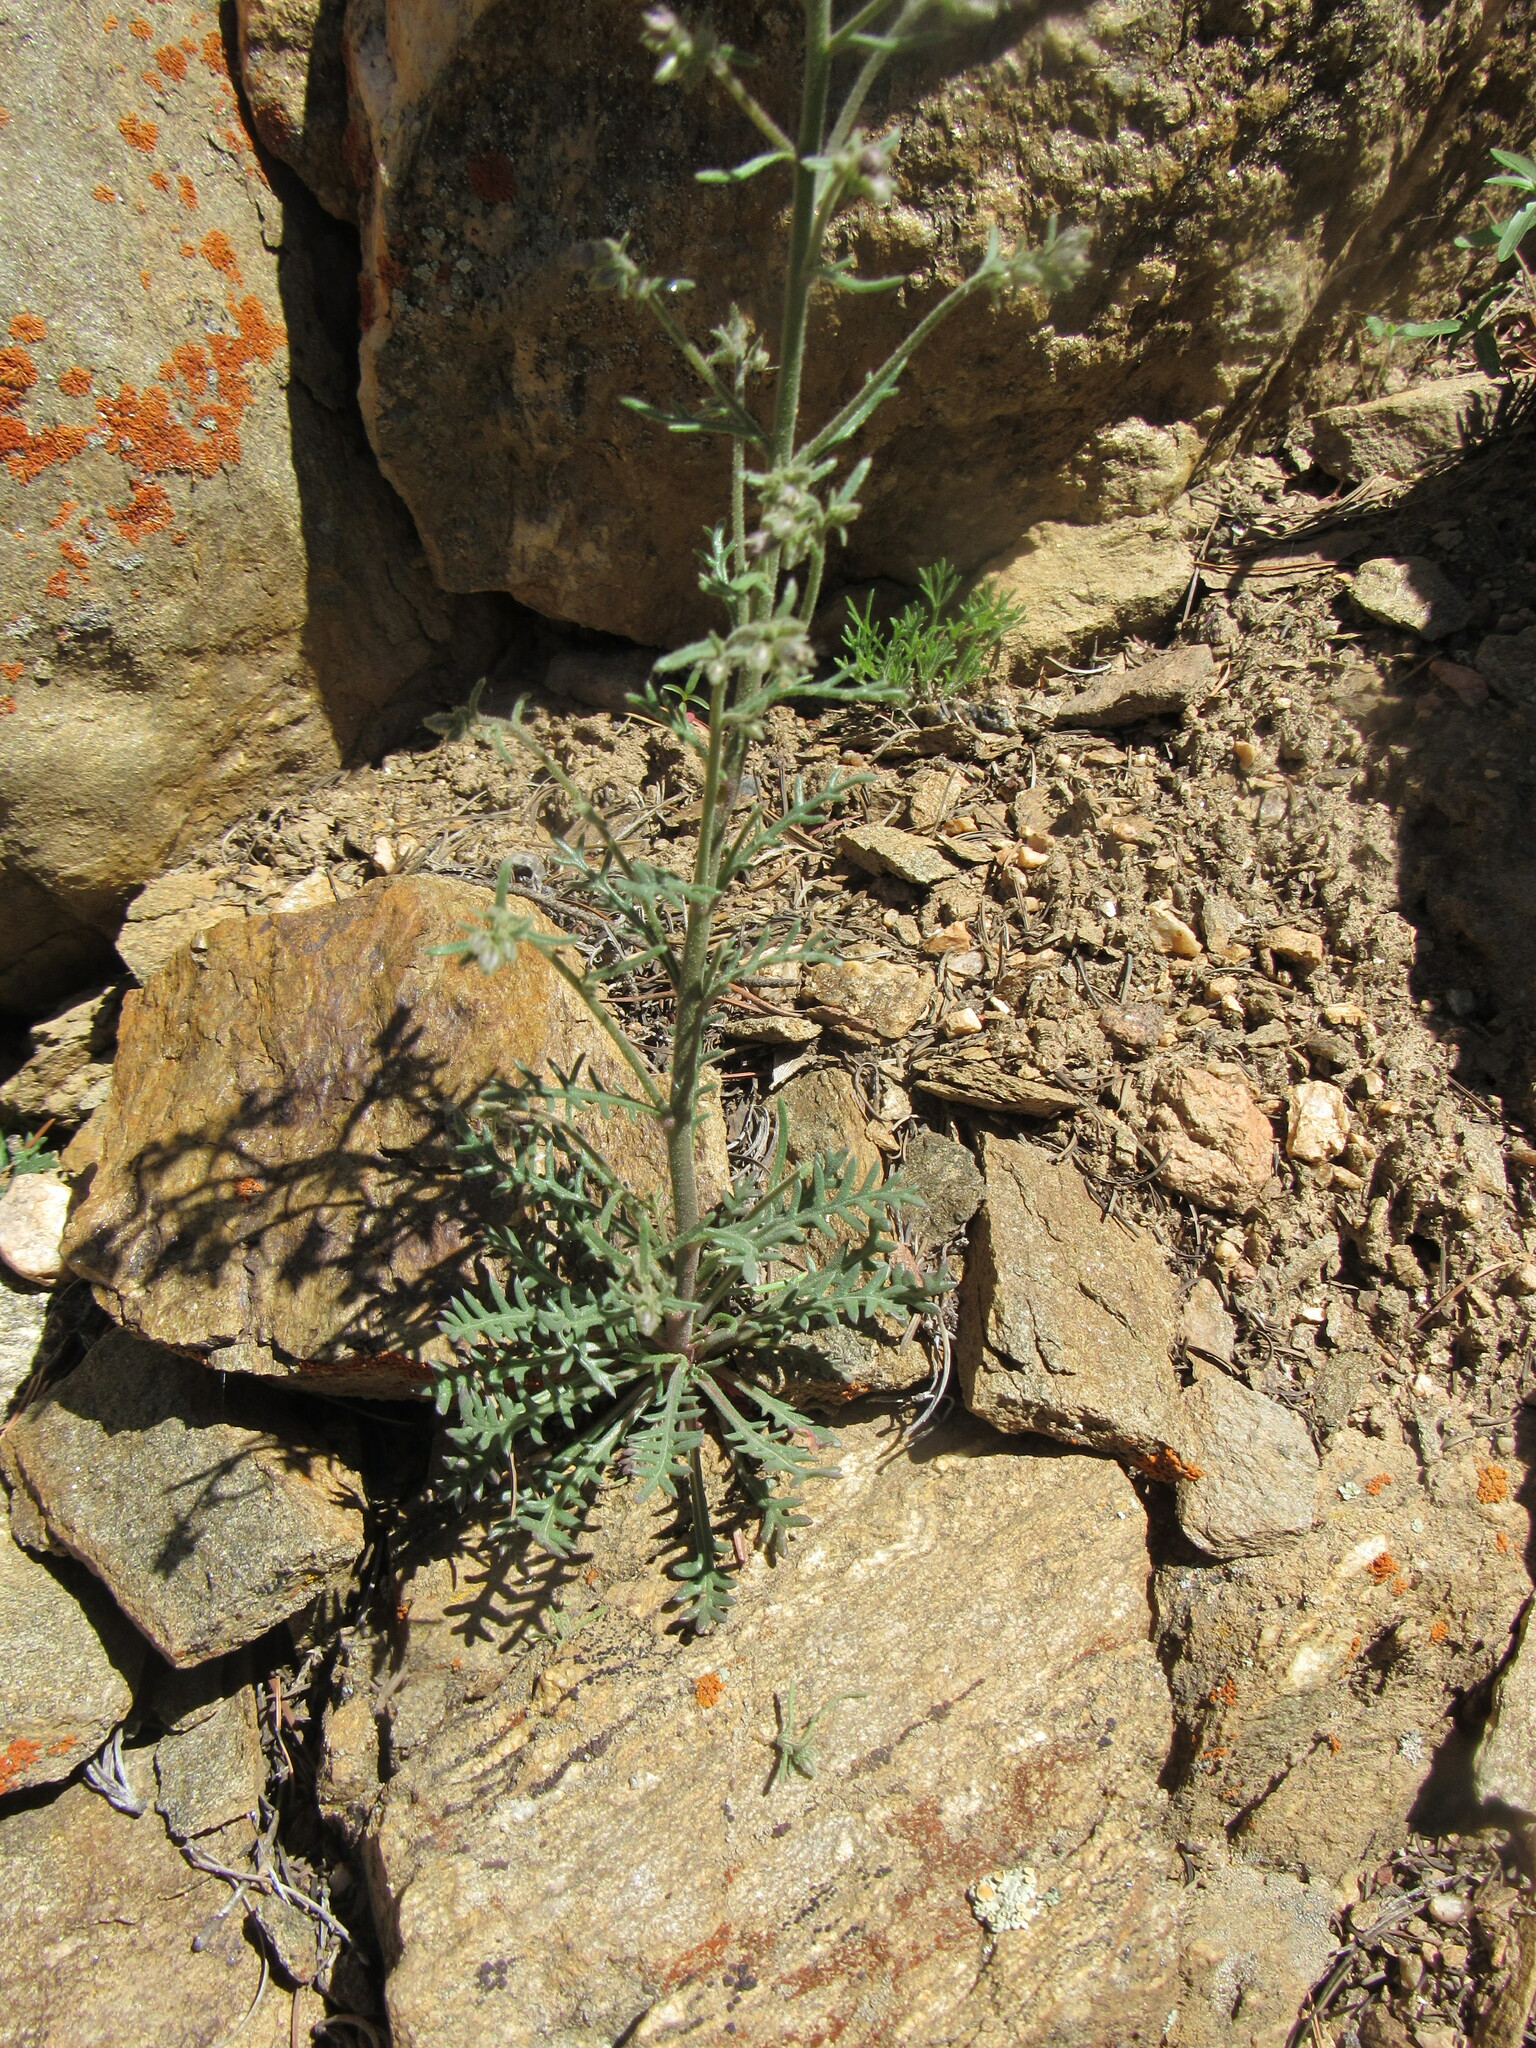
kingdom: Plantae
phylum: Tracheophyta
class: Magnoliopsida
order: Ericales
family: Polemoniaceae
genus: Aliciella
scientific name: Aliciella pinnatifida
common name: Sticky gilia
